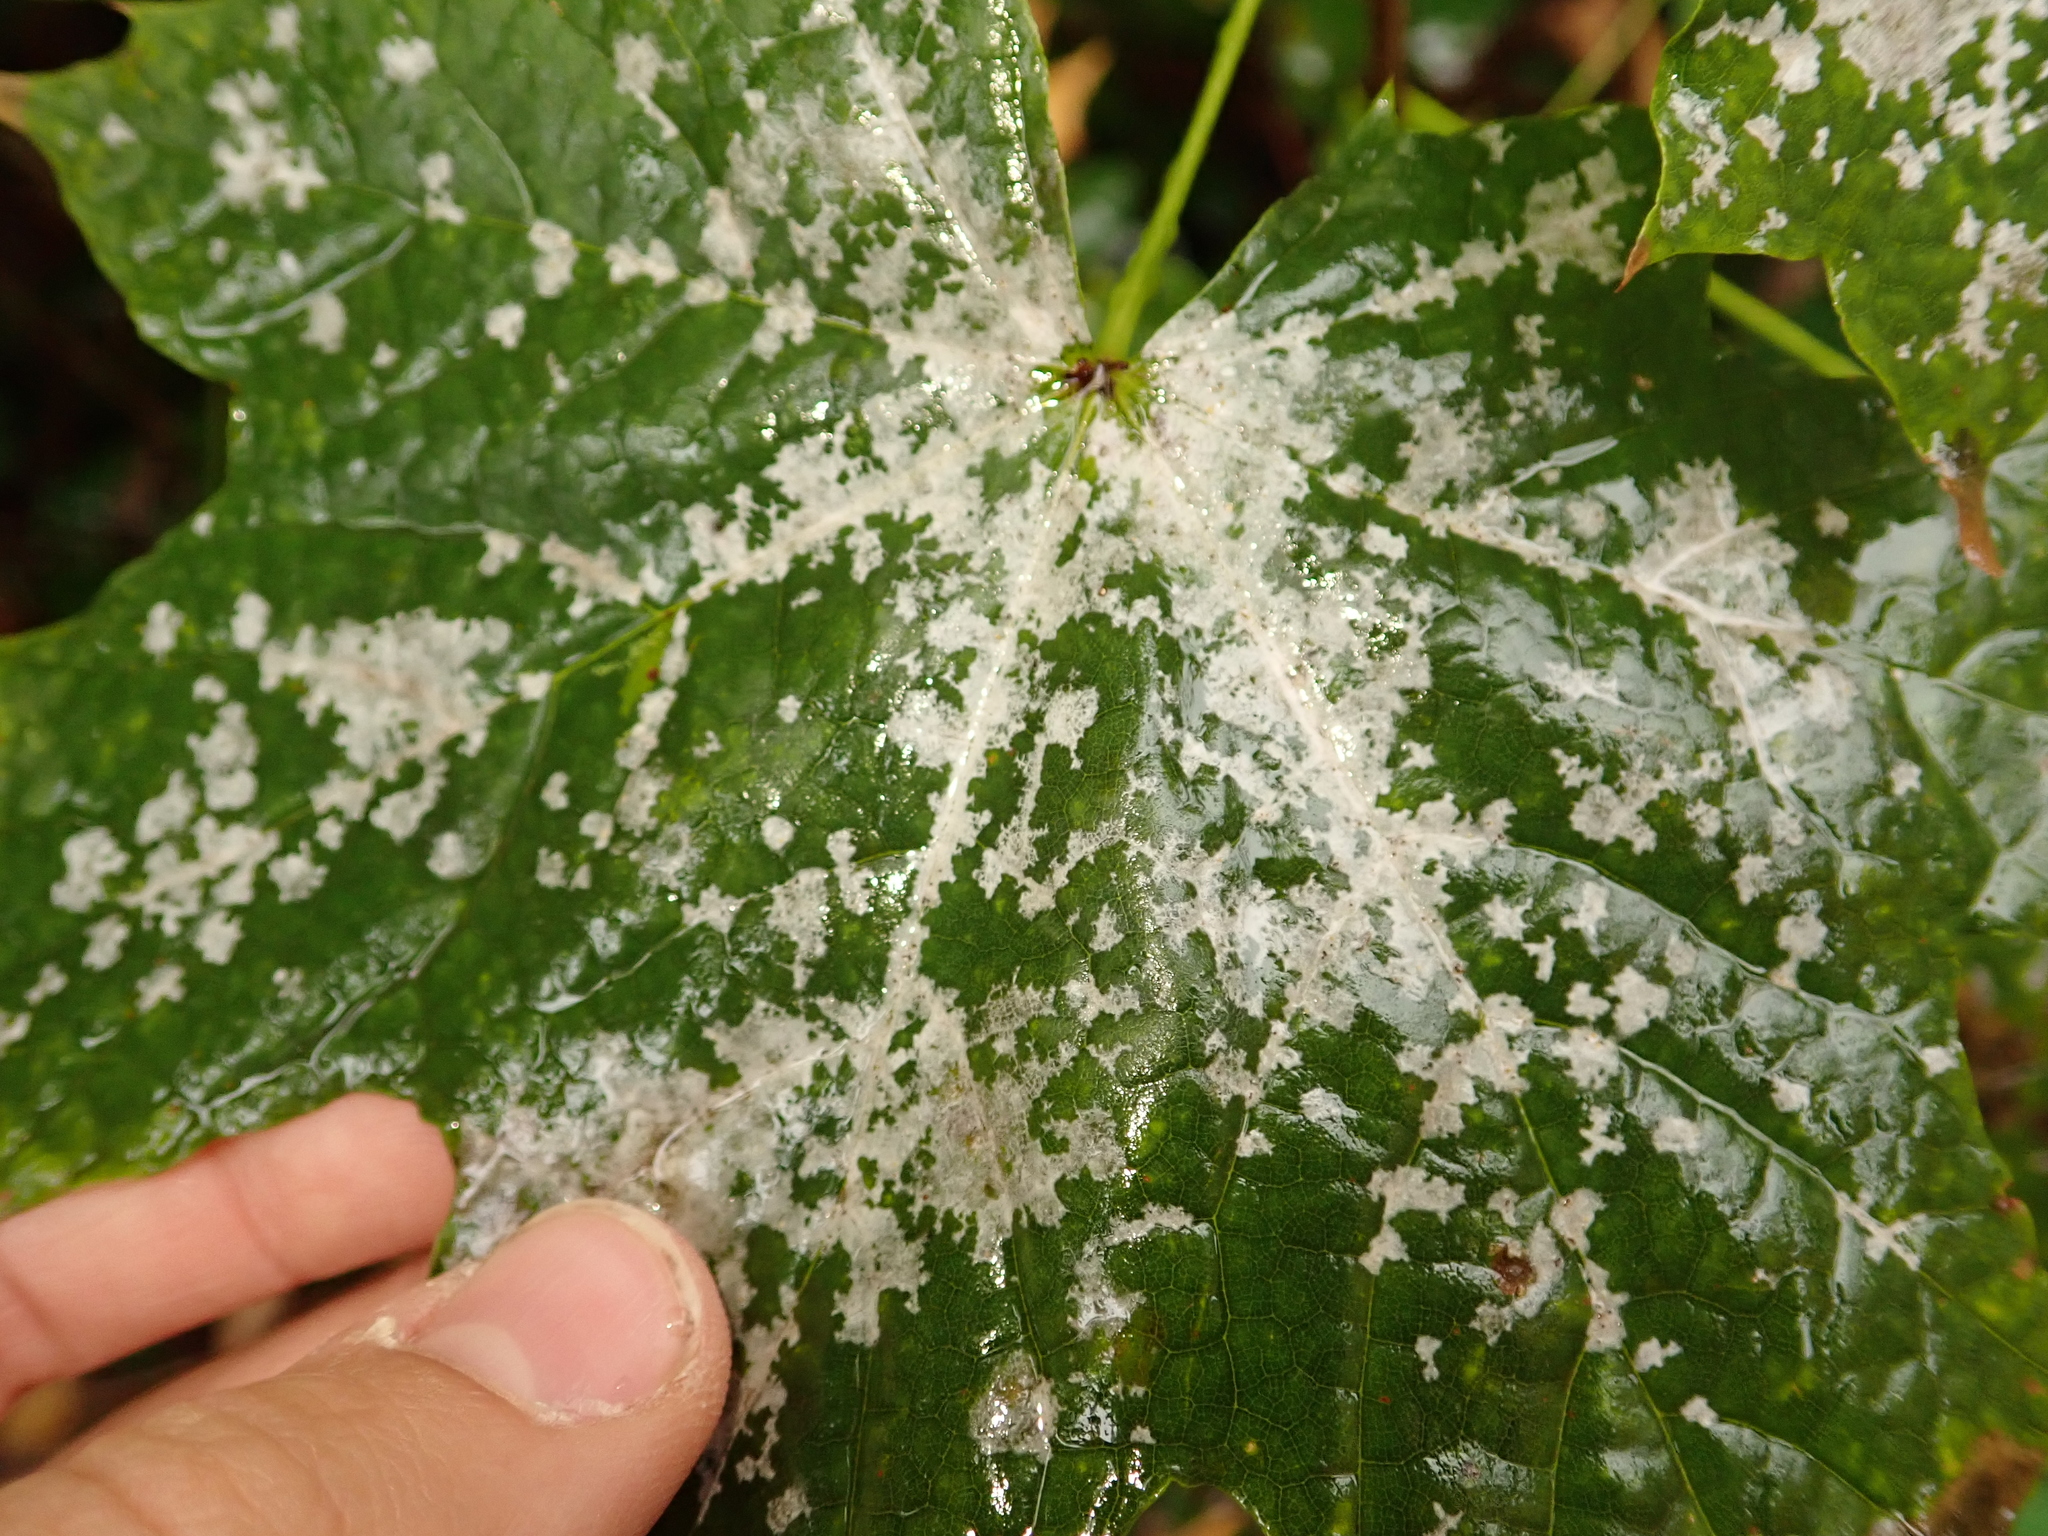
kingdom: Fungi
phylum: Ascomycota
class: Leotiomycetes
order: Helotiales
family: Erysiphaceae
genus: Sawadaea
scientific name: Sawadaea tulasnei
